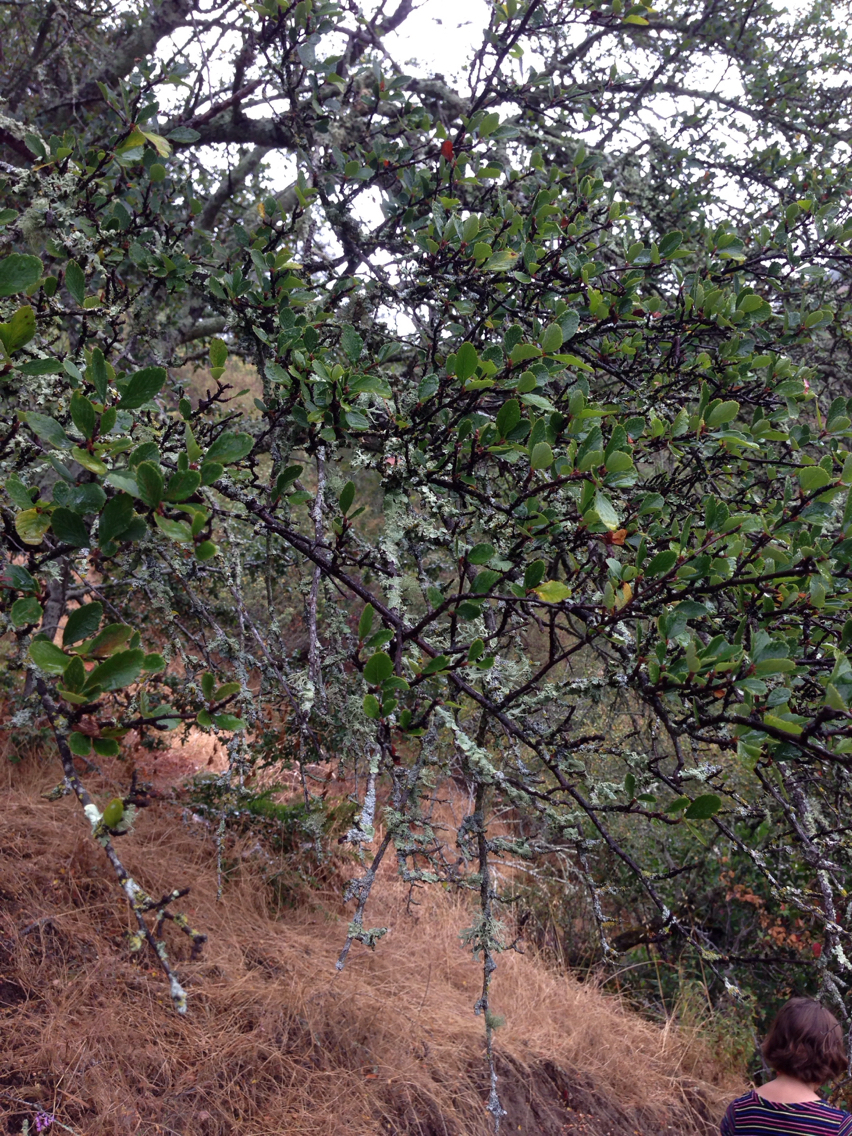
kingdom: Plantae
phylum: Tracheophyta
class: Magnoliopsida
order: Rosales
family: Rosaceae
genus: Cercocarpus
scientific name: Cercocarpus betuloides
